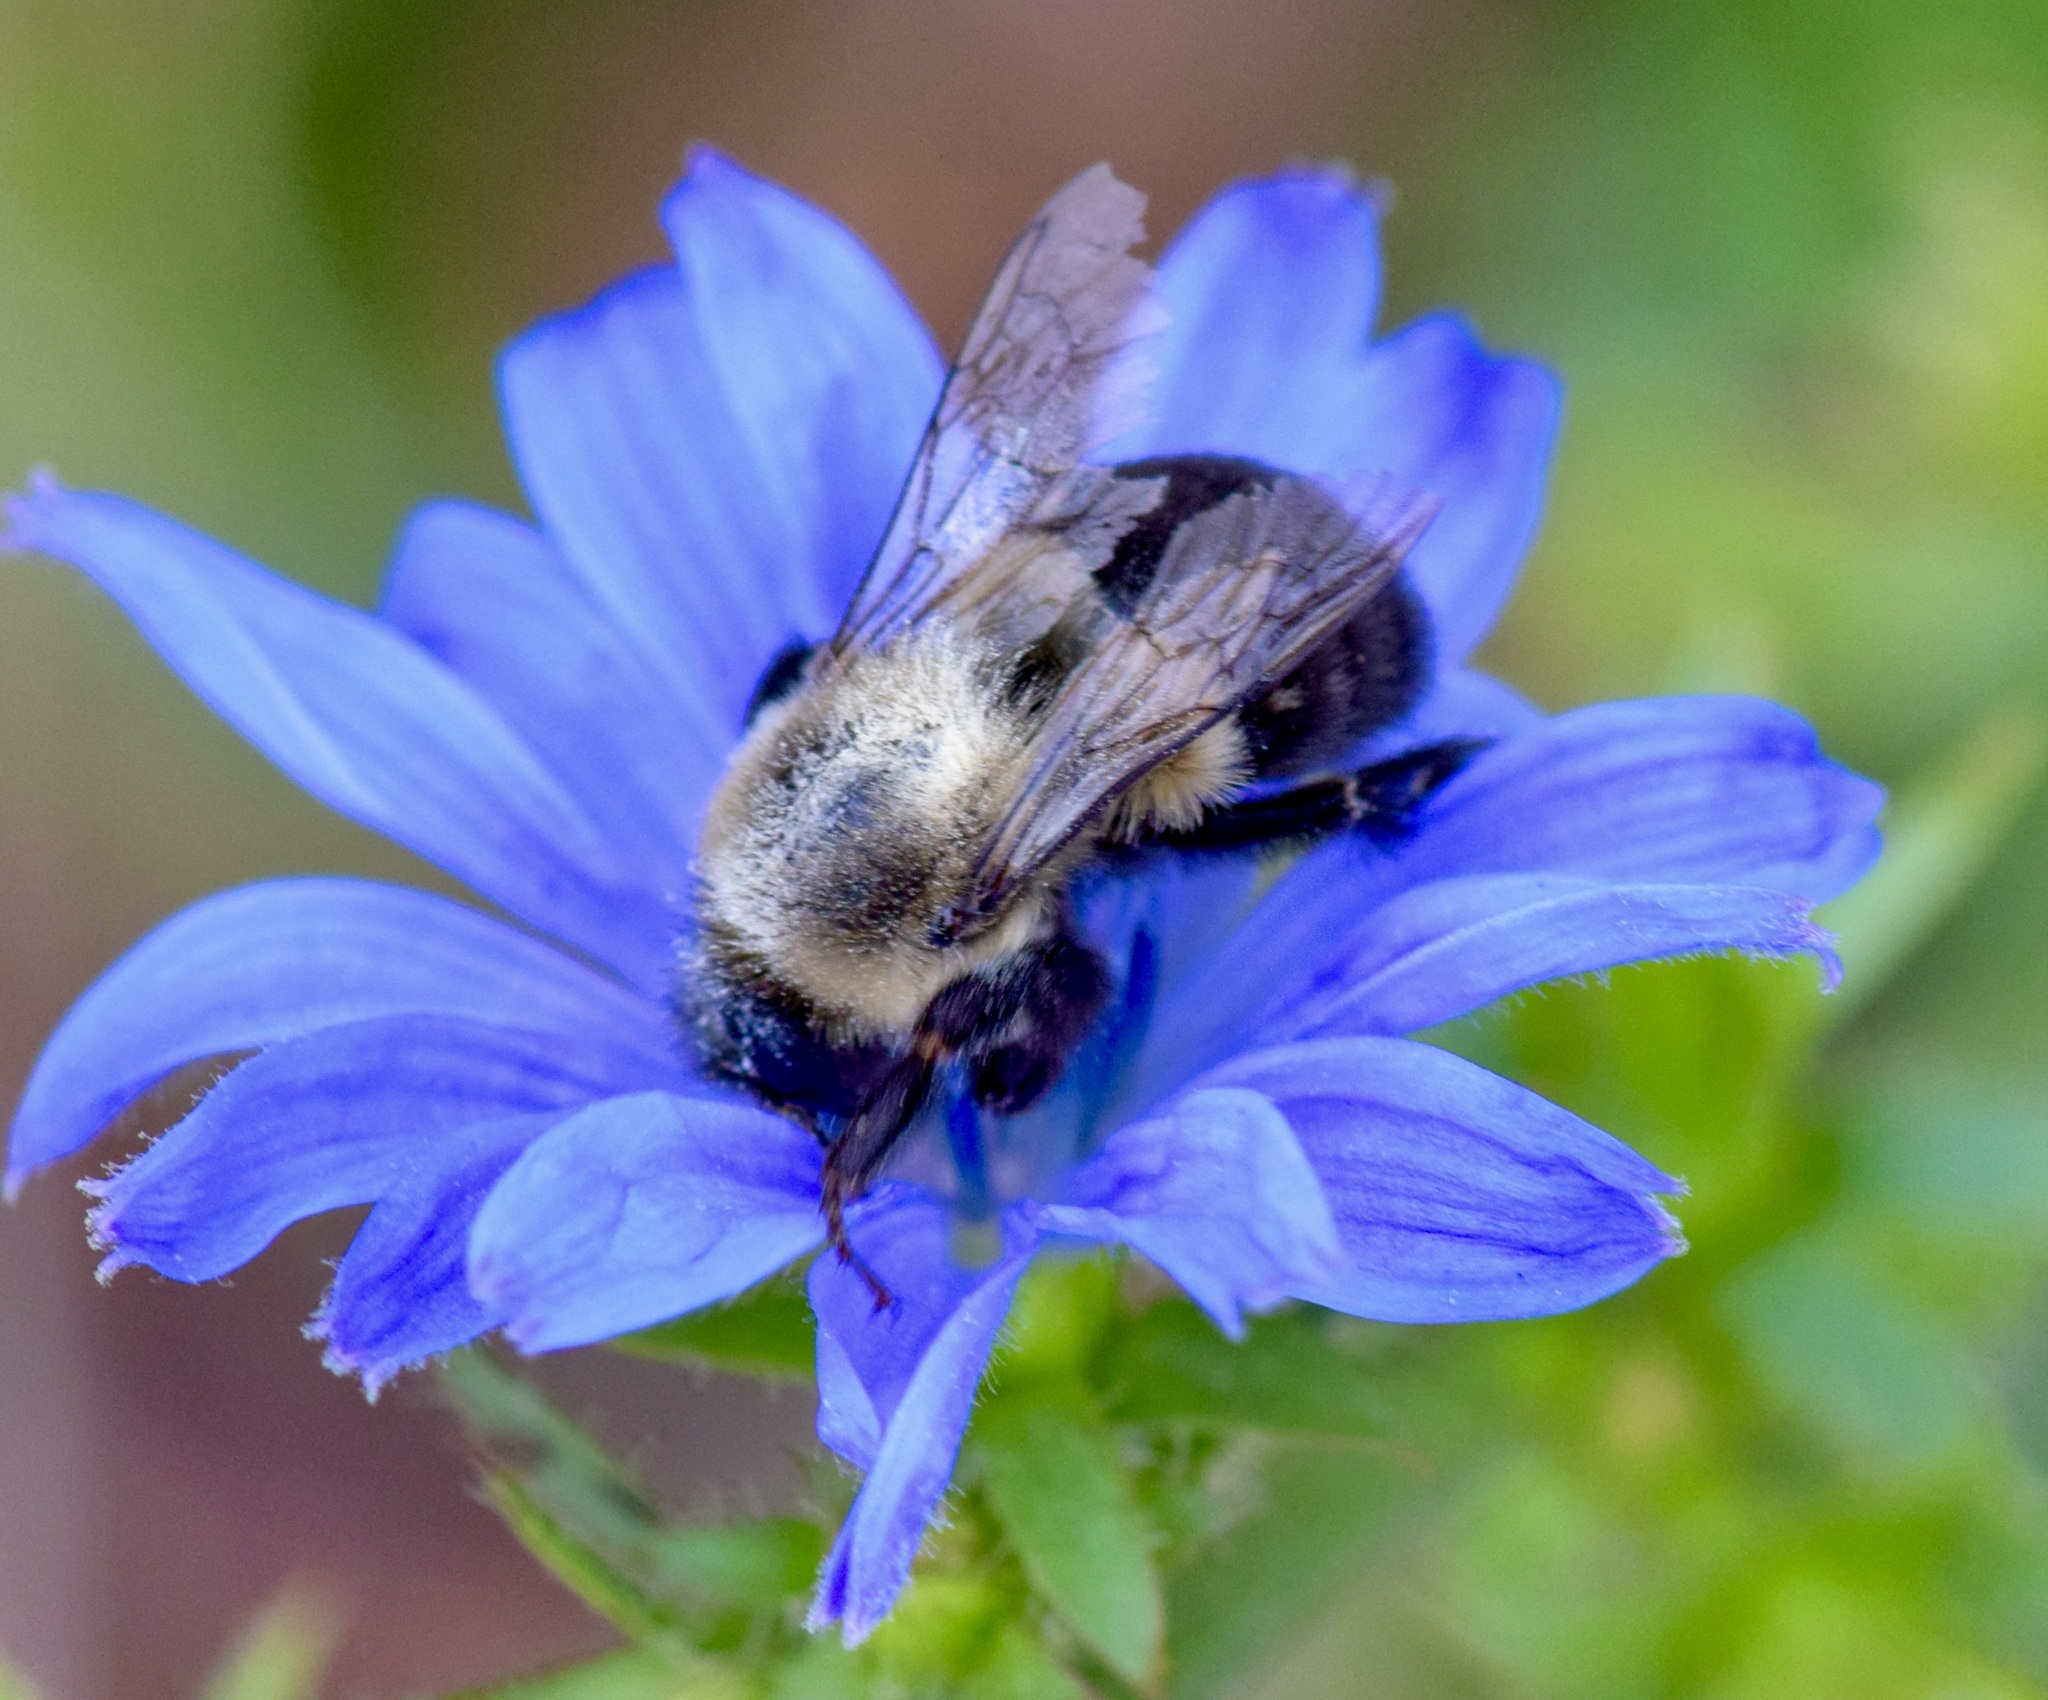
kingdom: Animalia
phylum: Arthropoda
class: Insecta
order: Hymenoptera
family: Apidae
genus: Bombus
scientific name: Bombus impatiens
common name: Common eastern bumble bee
